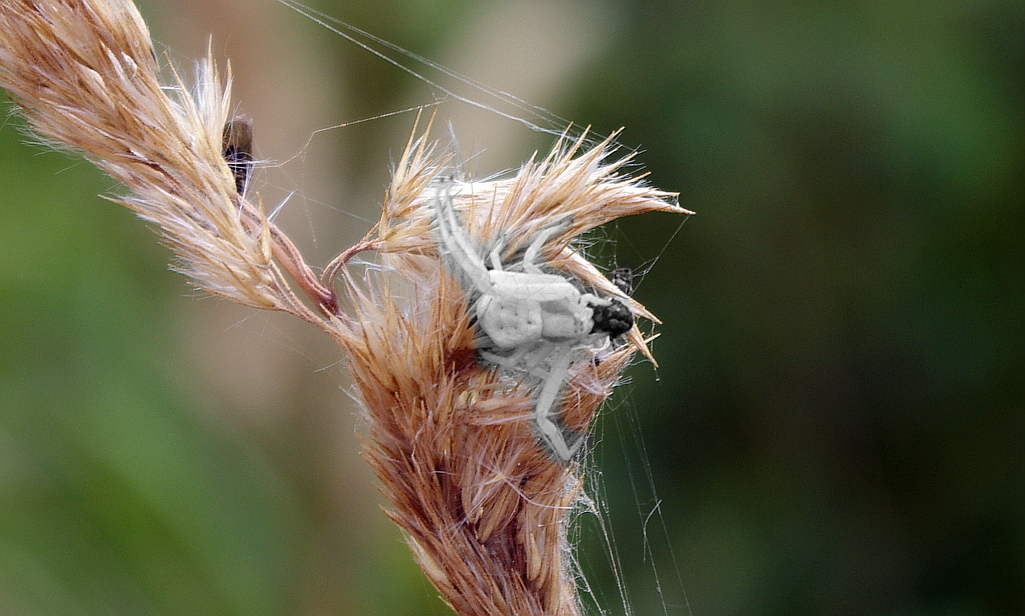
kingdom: Plantae
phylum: Tracheophyta
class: Liliopsida
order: Poales
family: Poaceae
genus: Calamagrostis
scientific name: Calamagrostis epigejos
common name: Wood small-reed
